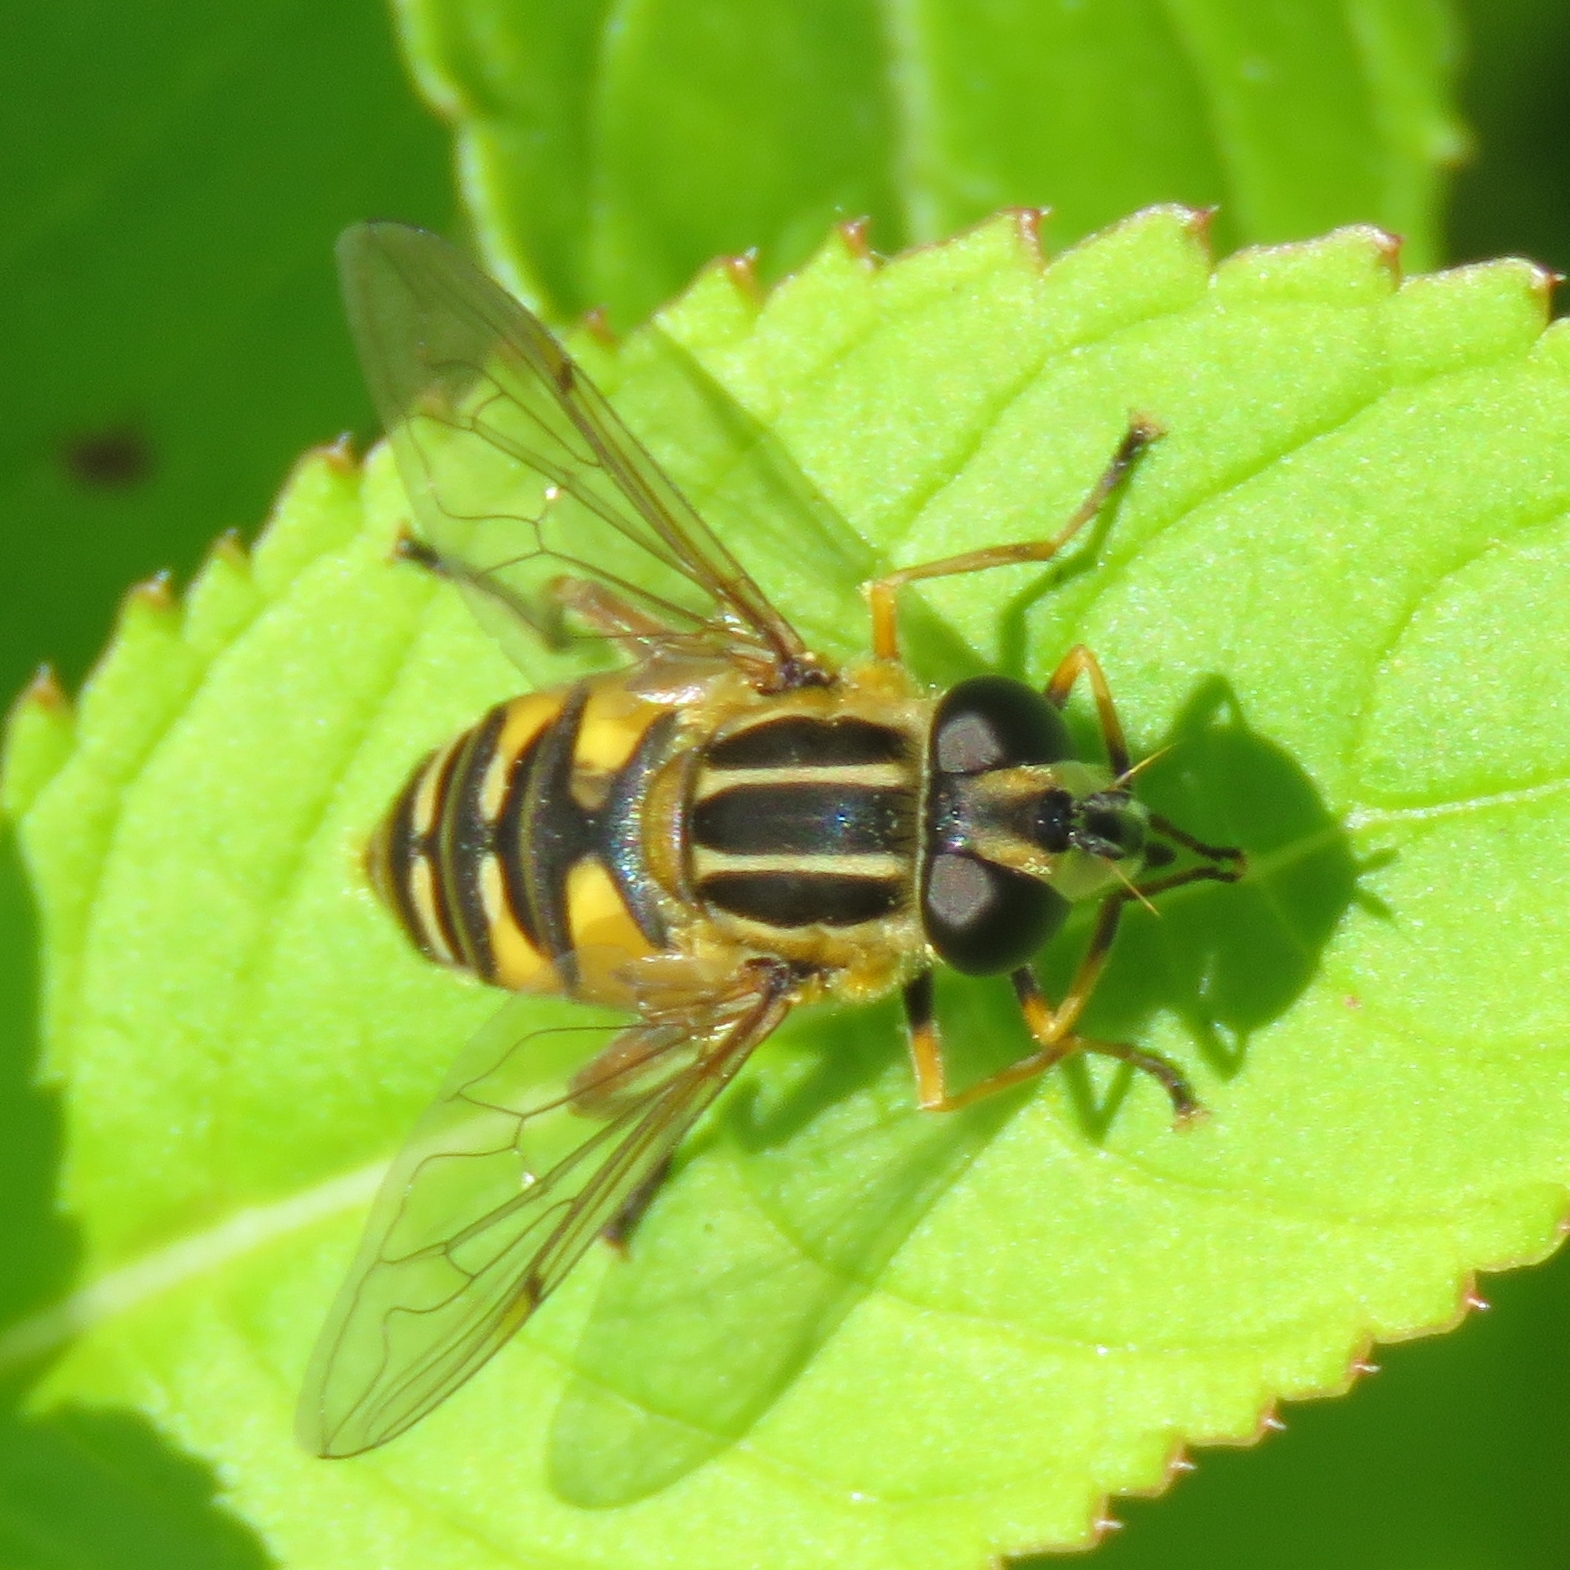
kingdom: Animalia
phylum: Arthropoda
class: Insecta
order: Diptera
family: Syrphidae
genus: Helophilus
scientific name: Helophilus pendulus
